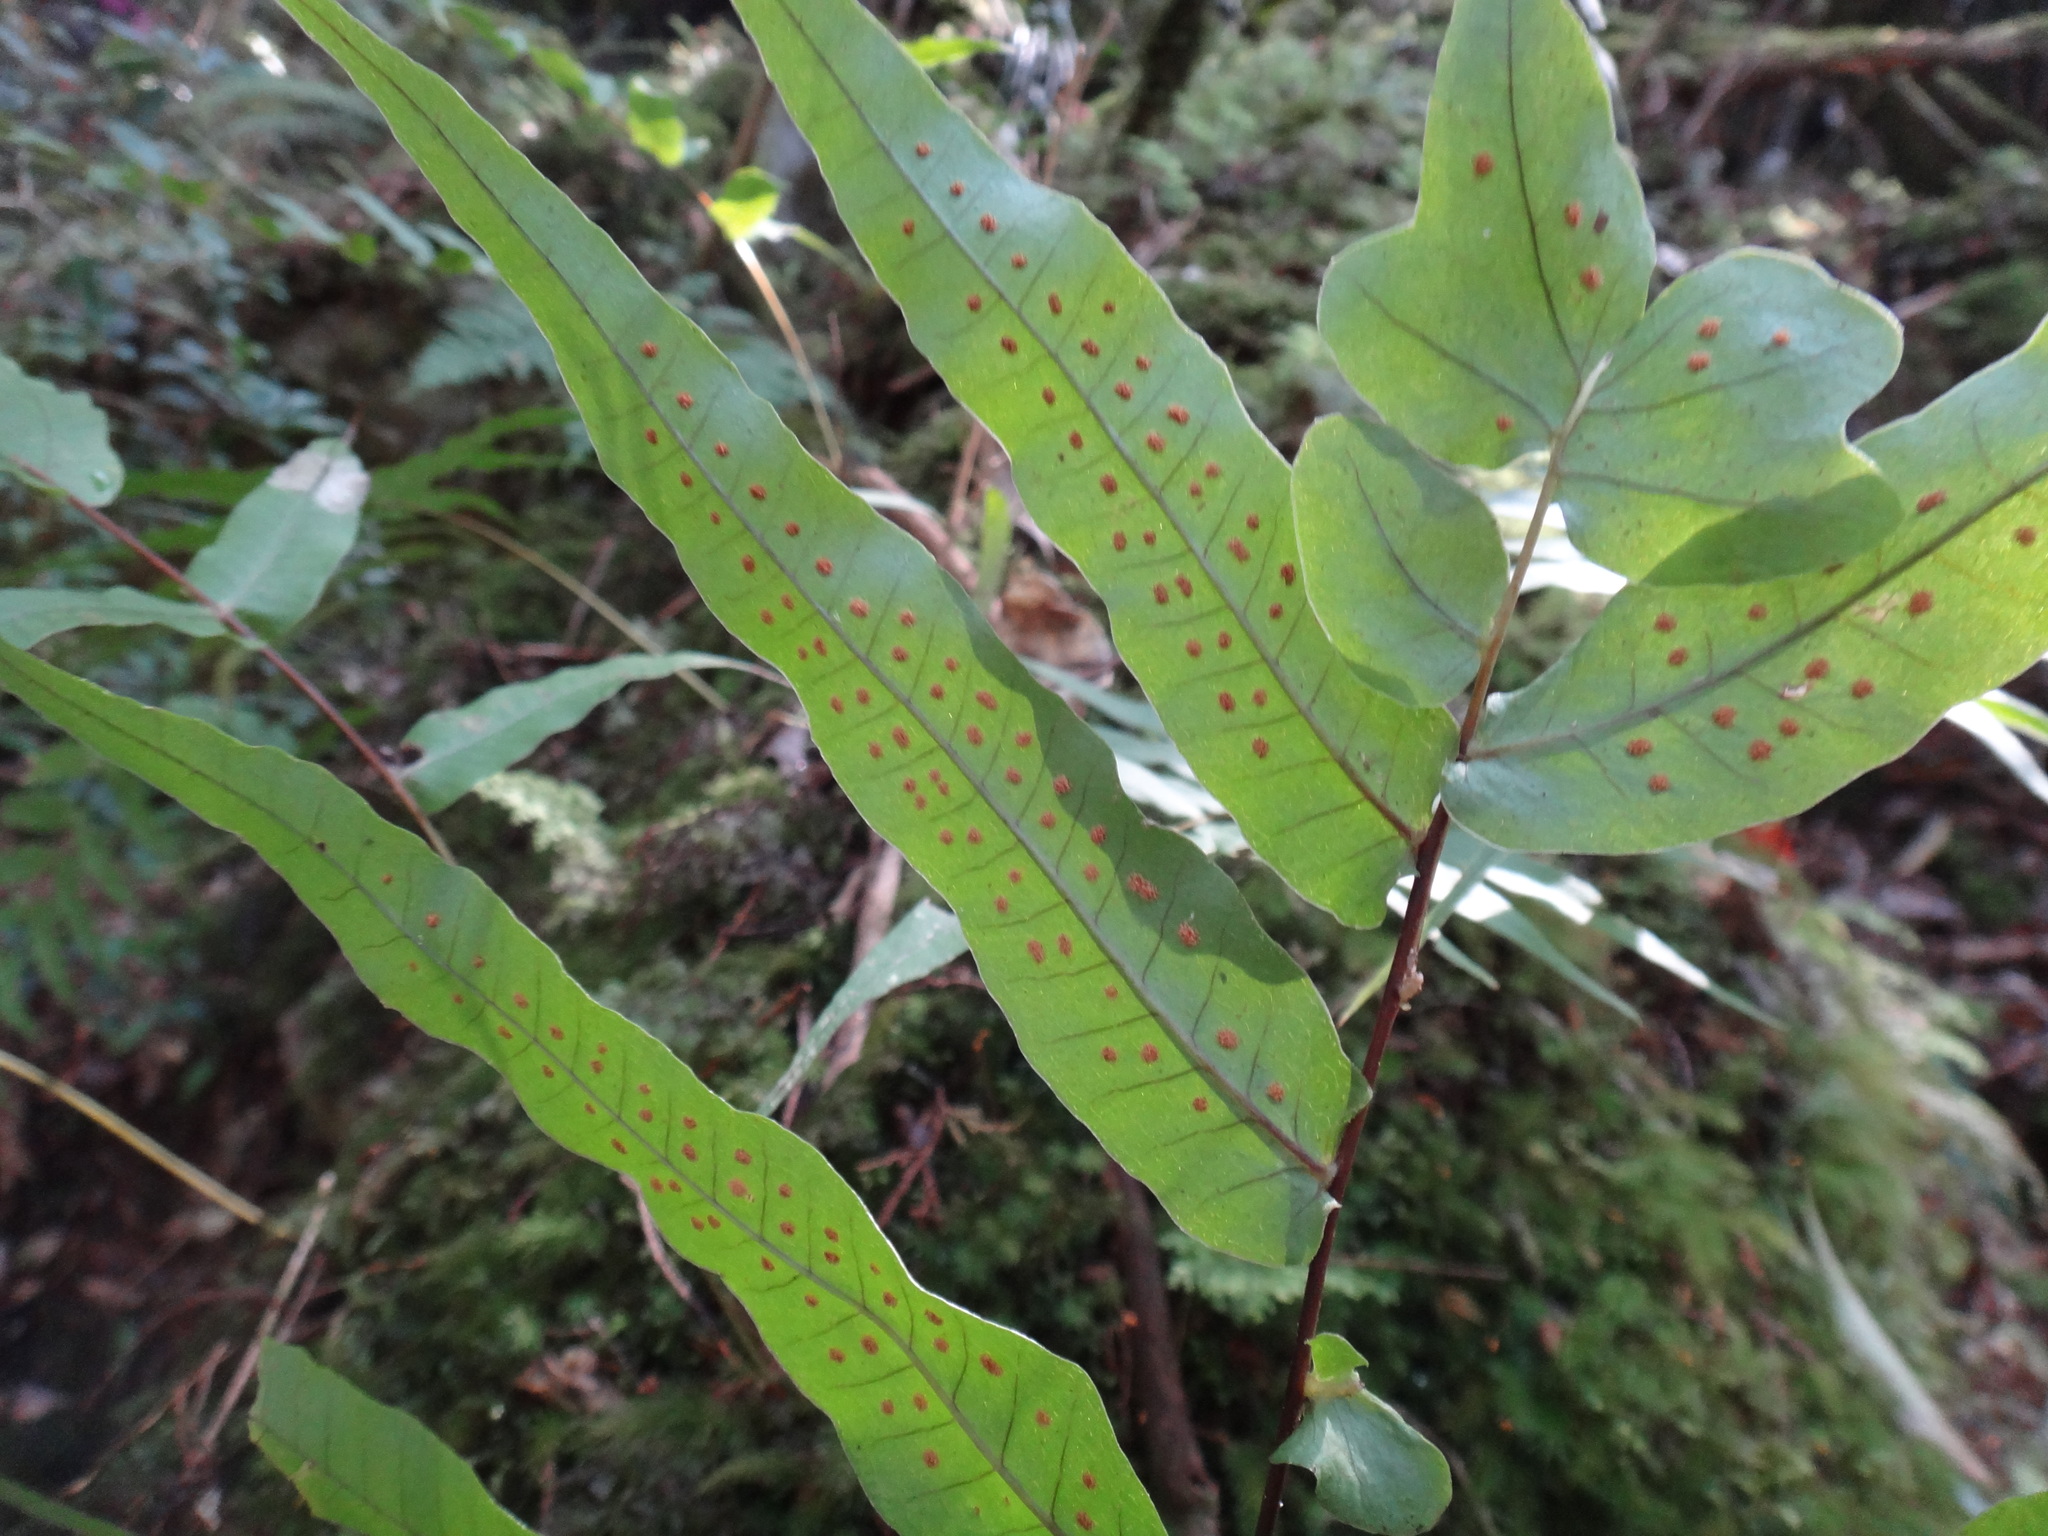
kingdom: Plantae
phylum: Tracheophyta
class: Polypodiopsida
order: Polypodiales
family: Polypodiaceae
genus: Selliguea
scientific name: Selliguea lehmannii
